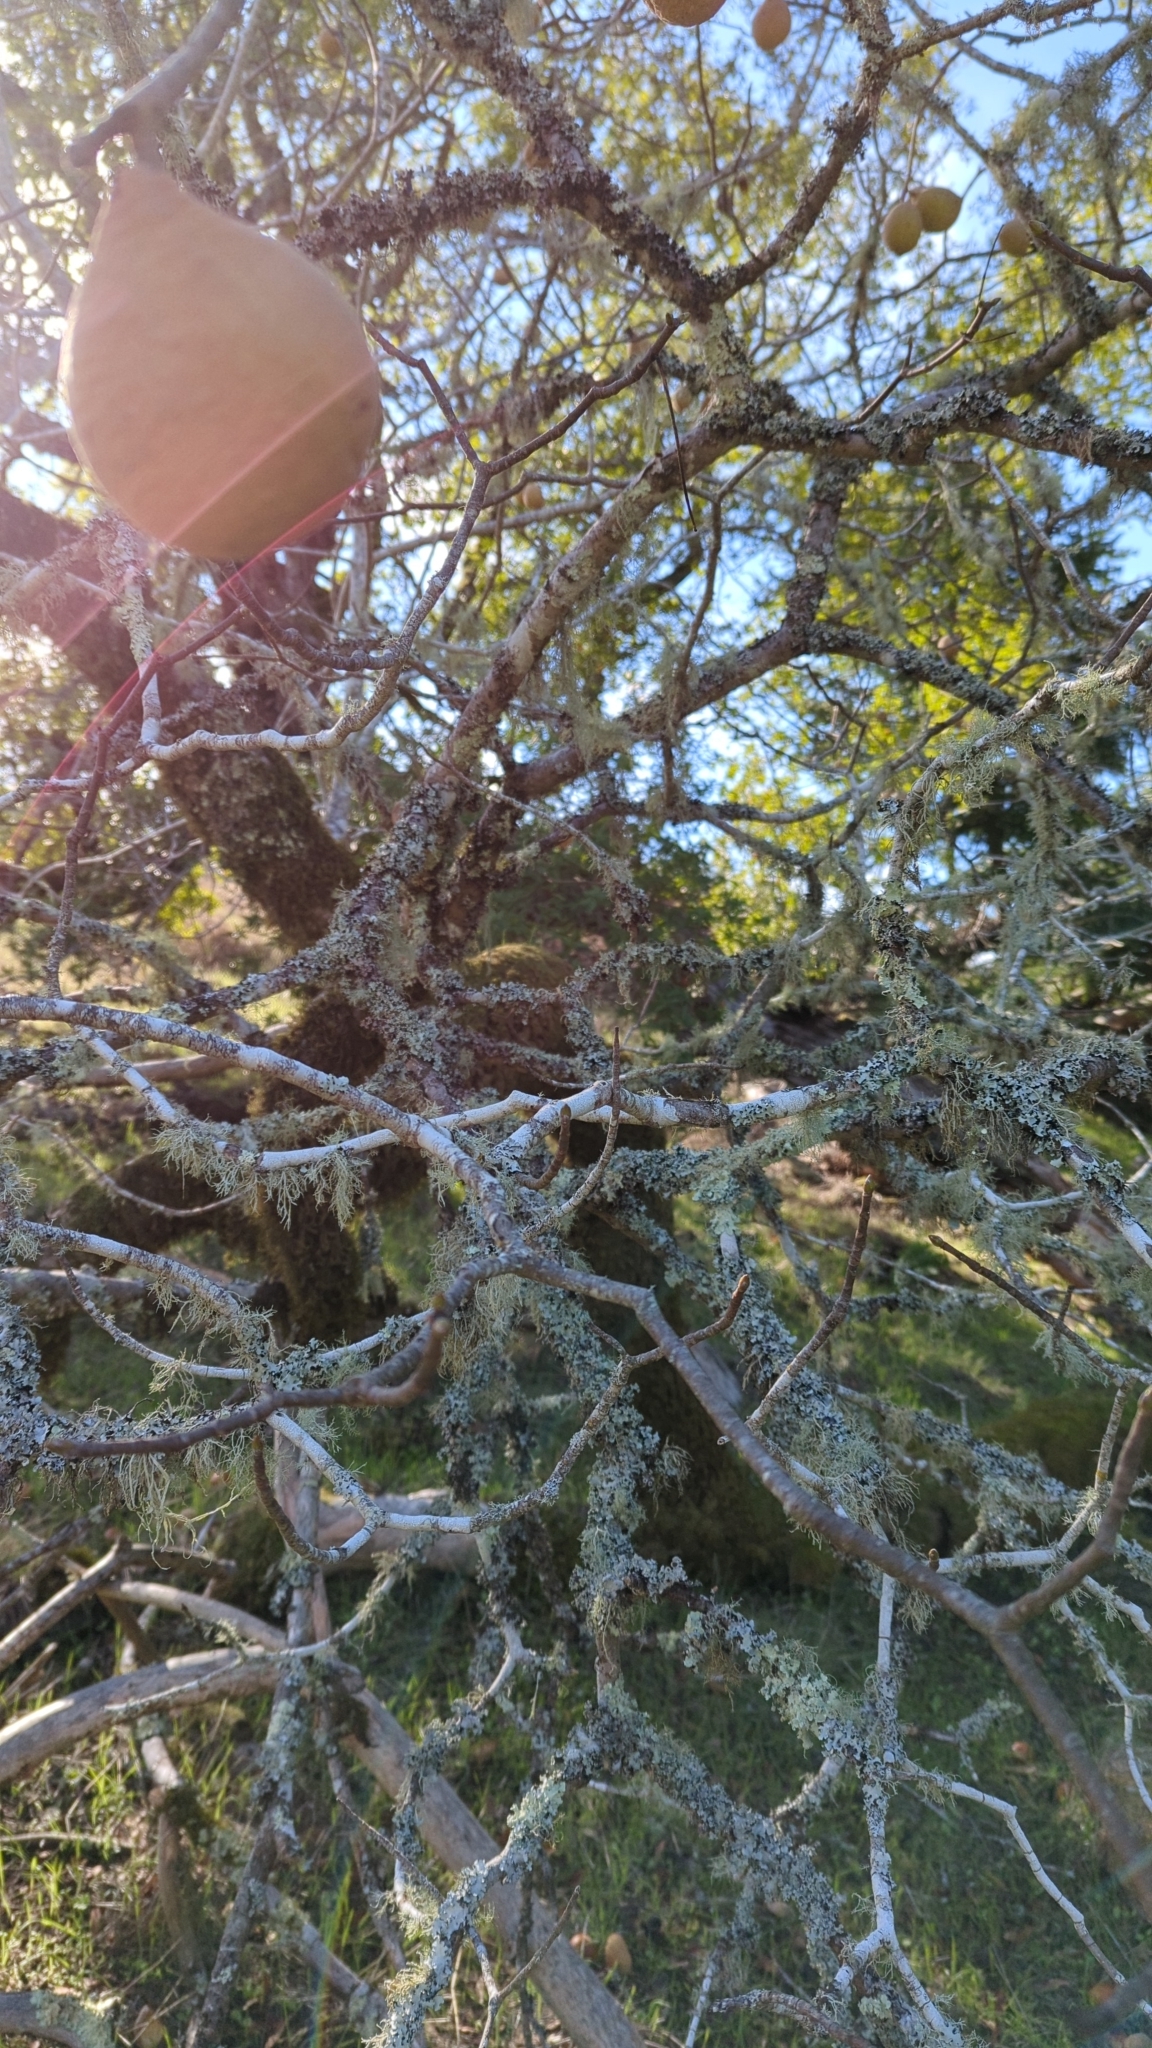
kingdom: Plantae
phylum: Tracheophyta
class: Magnoliopsida
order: Sapindales
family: Sapindaceae
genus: Aesculus
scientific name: Aesculus californica
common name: California buckeye
